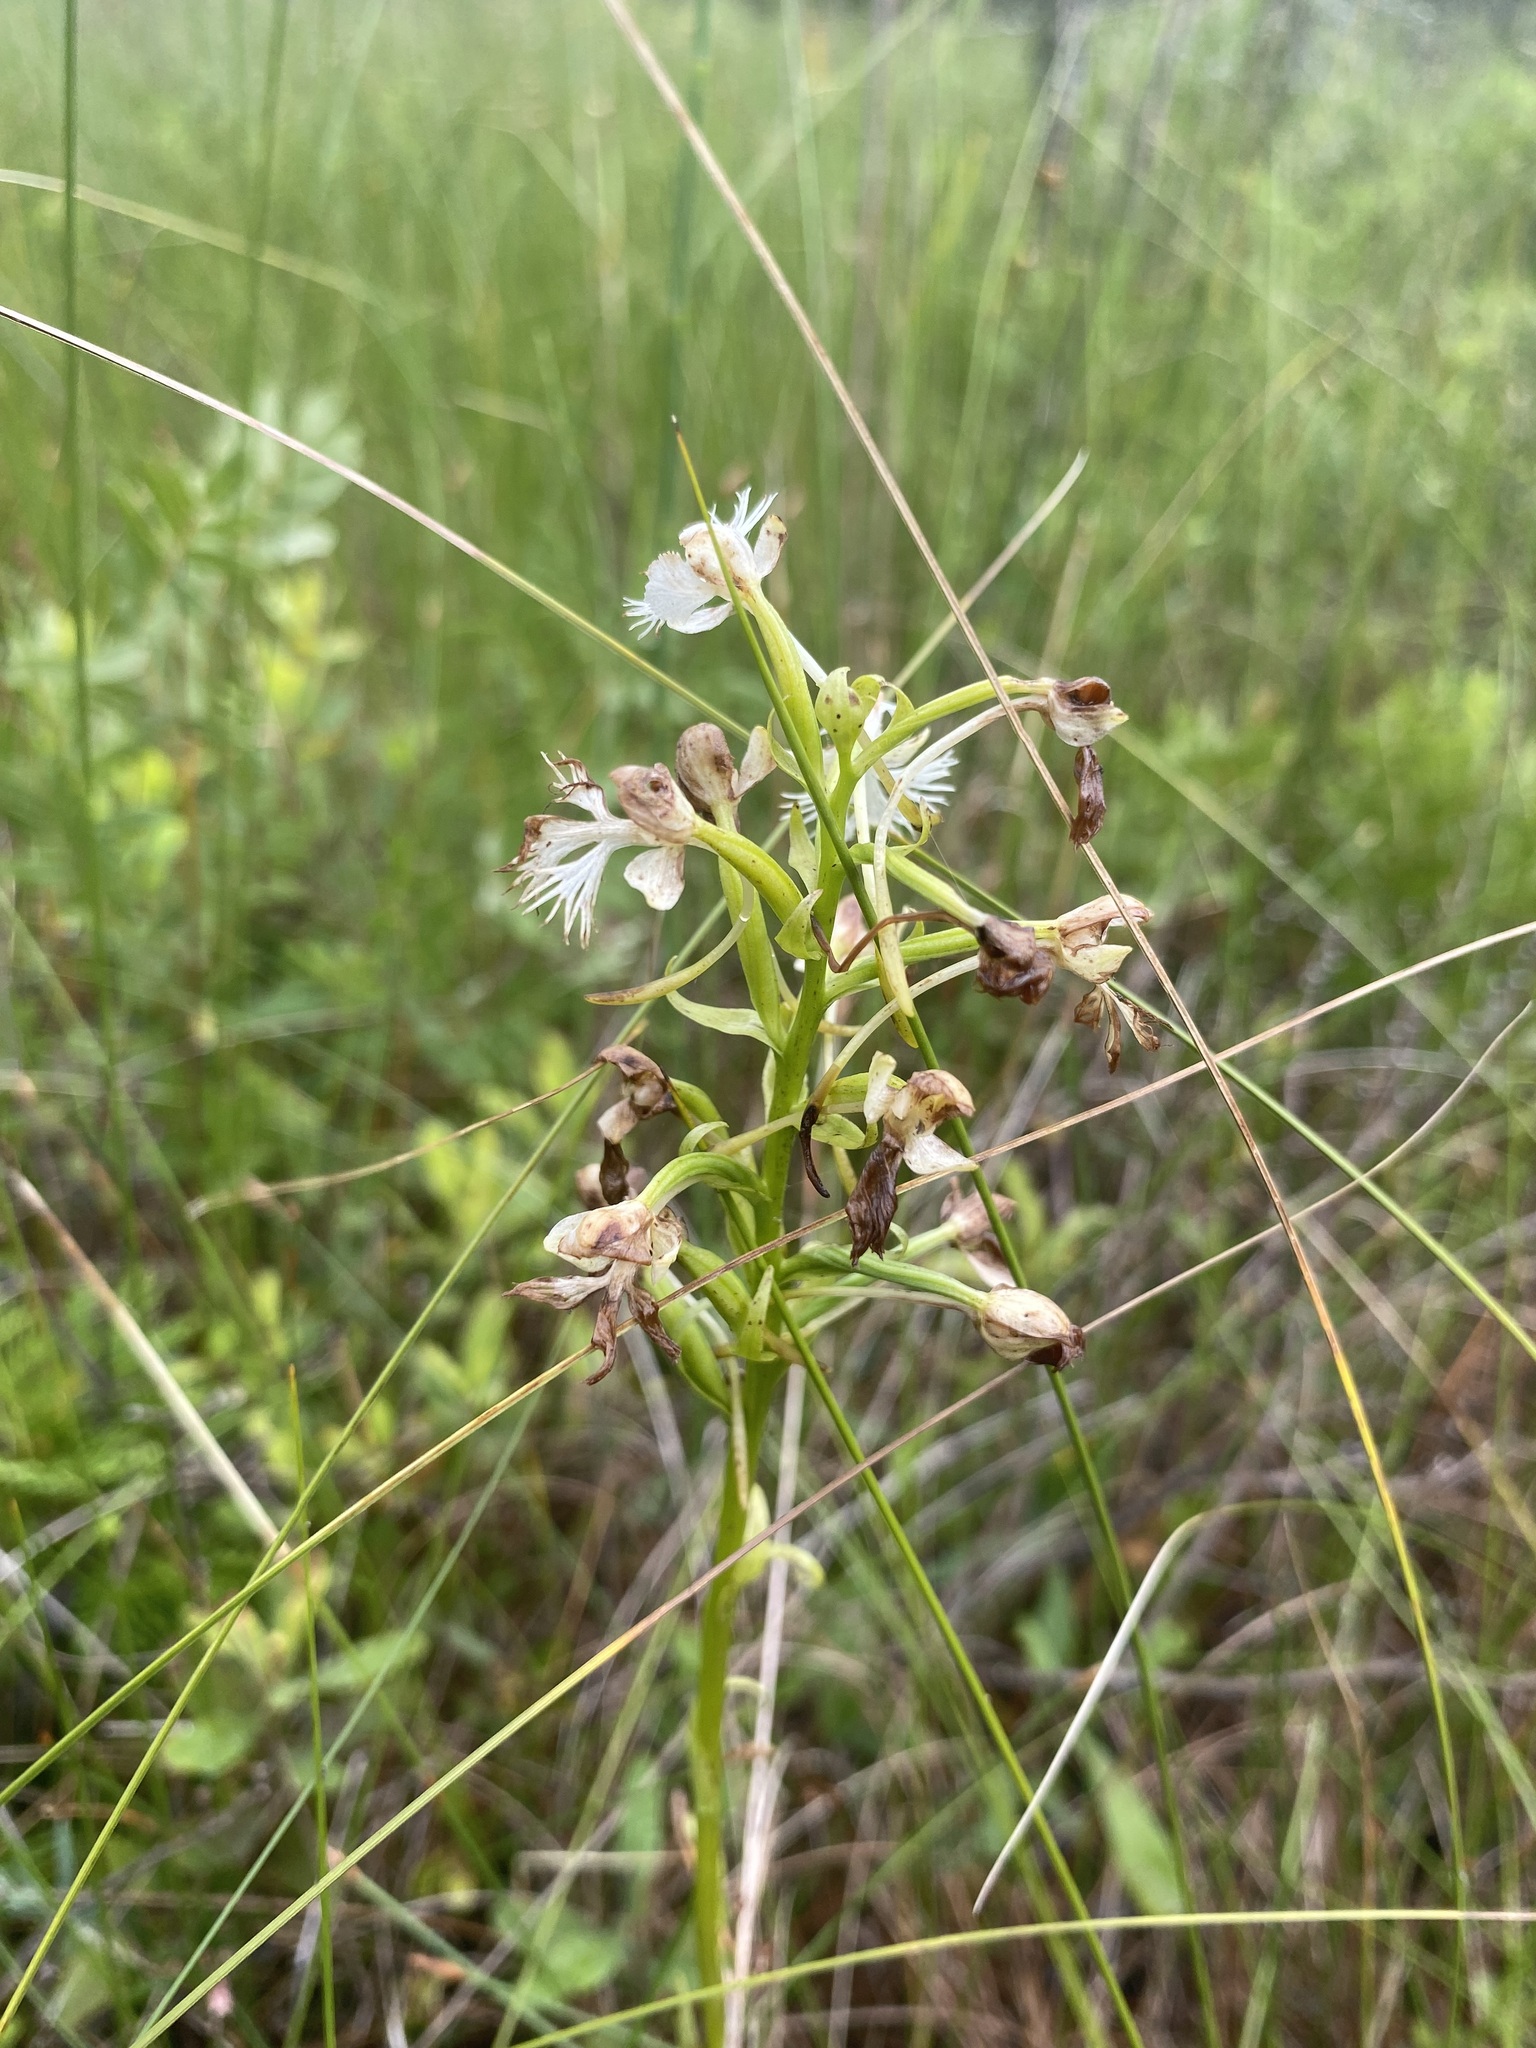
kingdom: Plantae
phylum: Tracheophyta
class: Liliopsida
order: Asparagales
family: Orchidaceae
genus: Platanthera
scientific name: Platanthera leucophaea
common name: Eastern prairie white-fringed orchid
